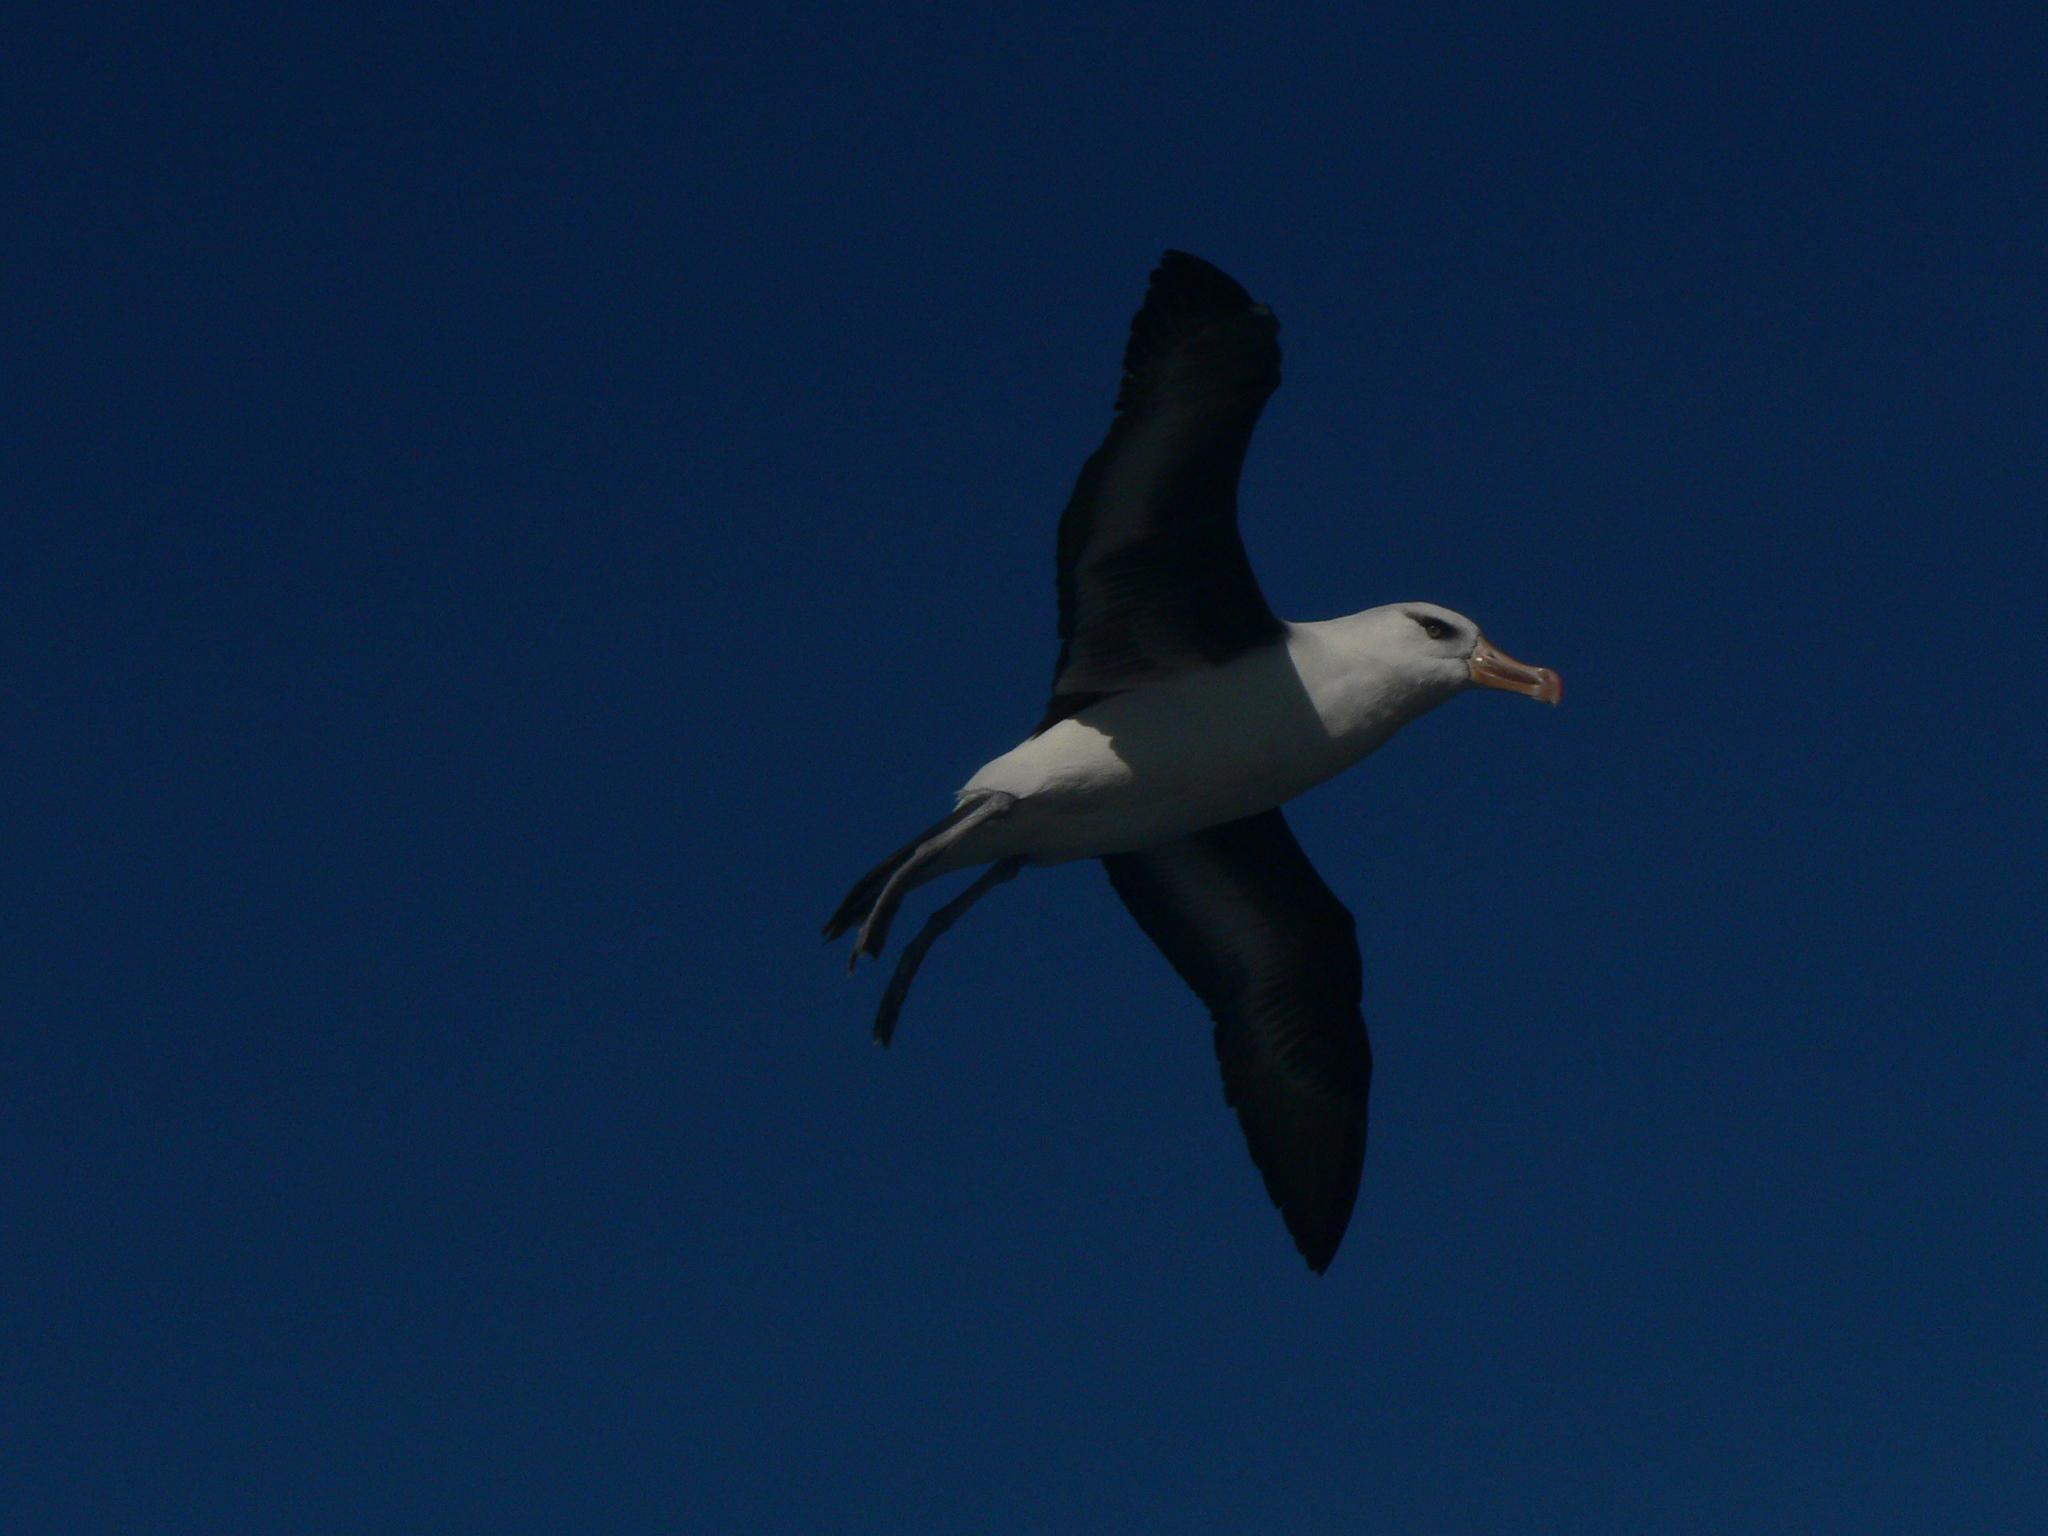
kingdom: Animalia
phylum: Chordata
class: Aves
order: Procellariiformes
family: Diomedeidae
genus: Thalassarche
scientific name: Thalassarche impavida
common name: Campbell albatross
